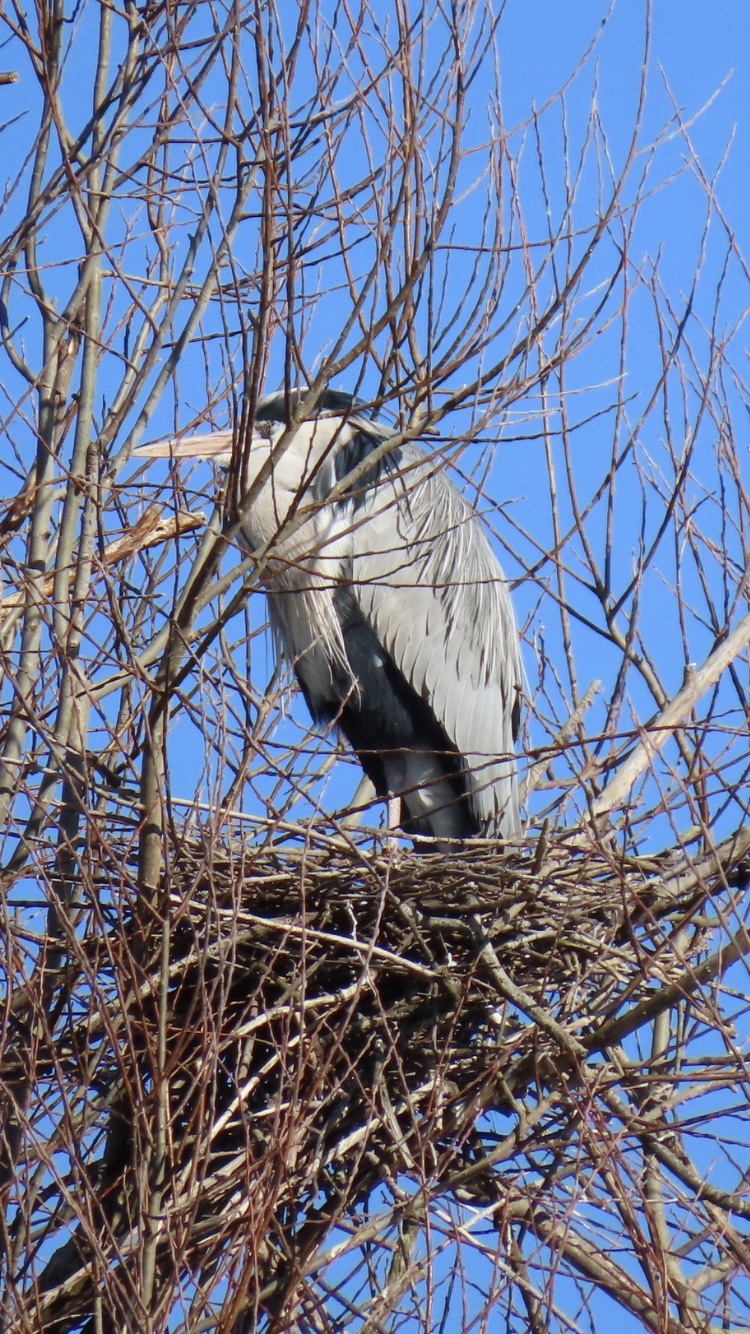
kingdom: Animalia
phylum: Chordata
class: Aves
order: Pelecaniformes
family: Ardeidae
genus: Ardea
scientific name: Ardea cinerea
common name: Grey heron
